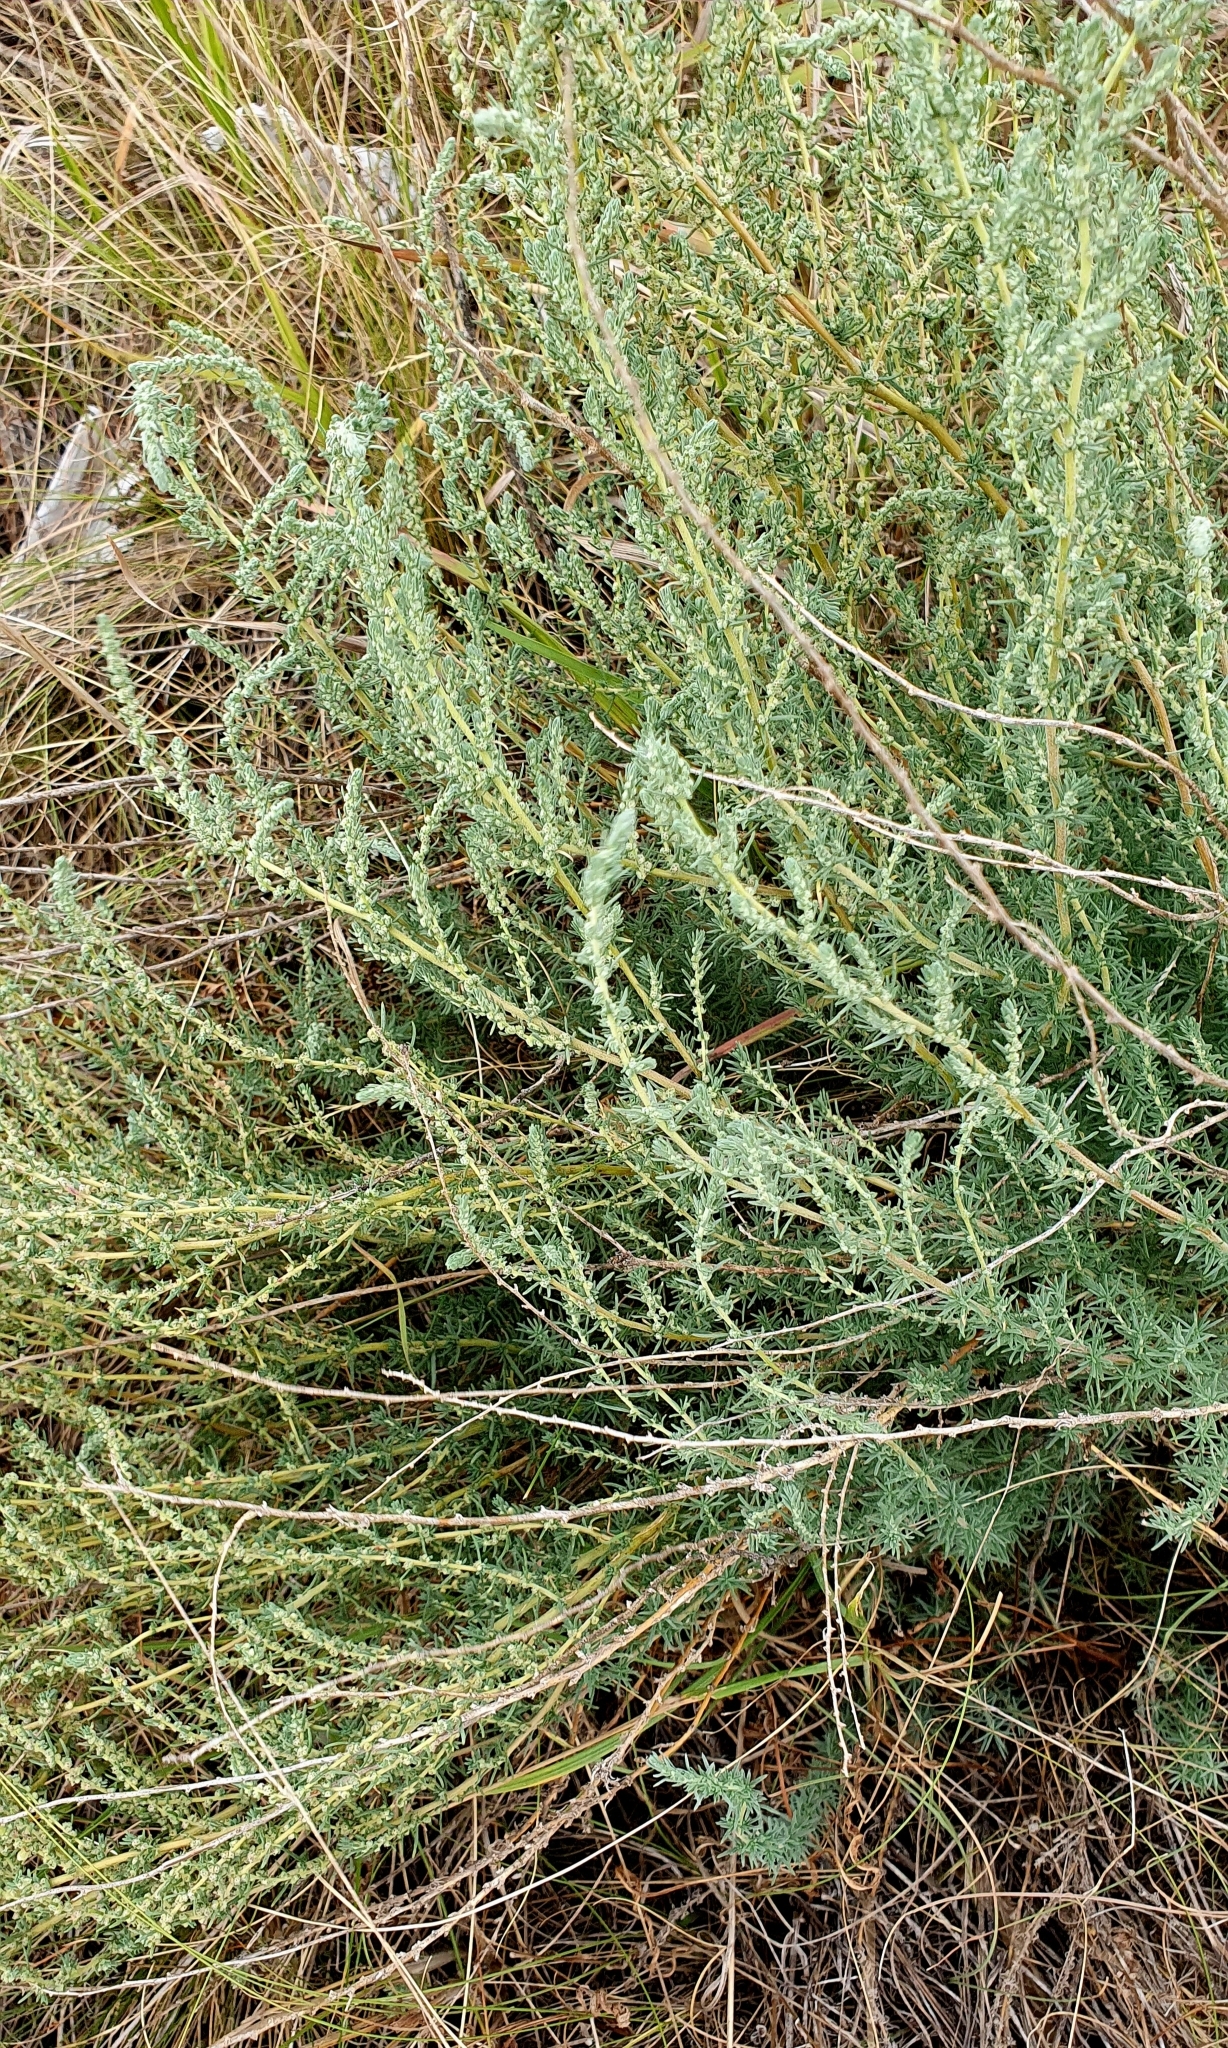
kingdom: Plantae
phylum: Tracheophyta
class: Magnoliopsida
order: Caryophyllales
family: Amaranthaceae
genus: Bassia
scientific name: Bassia prostrata
